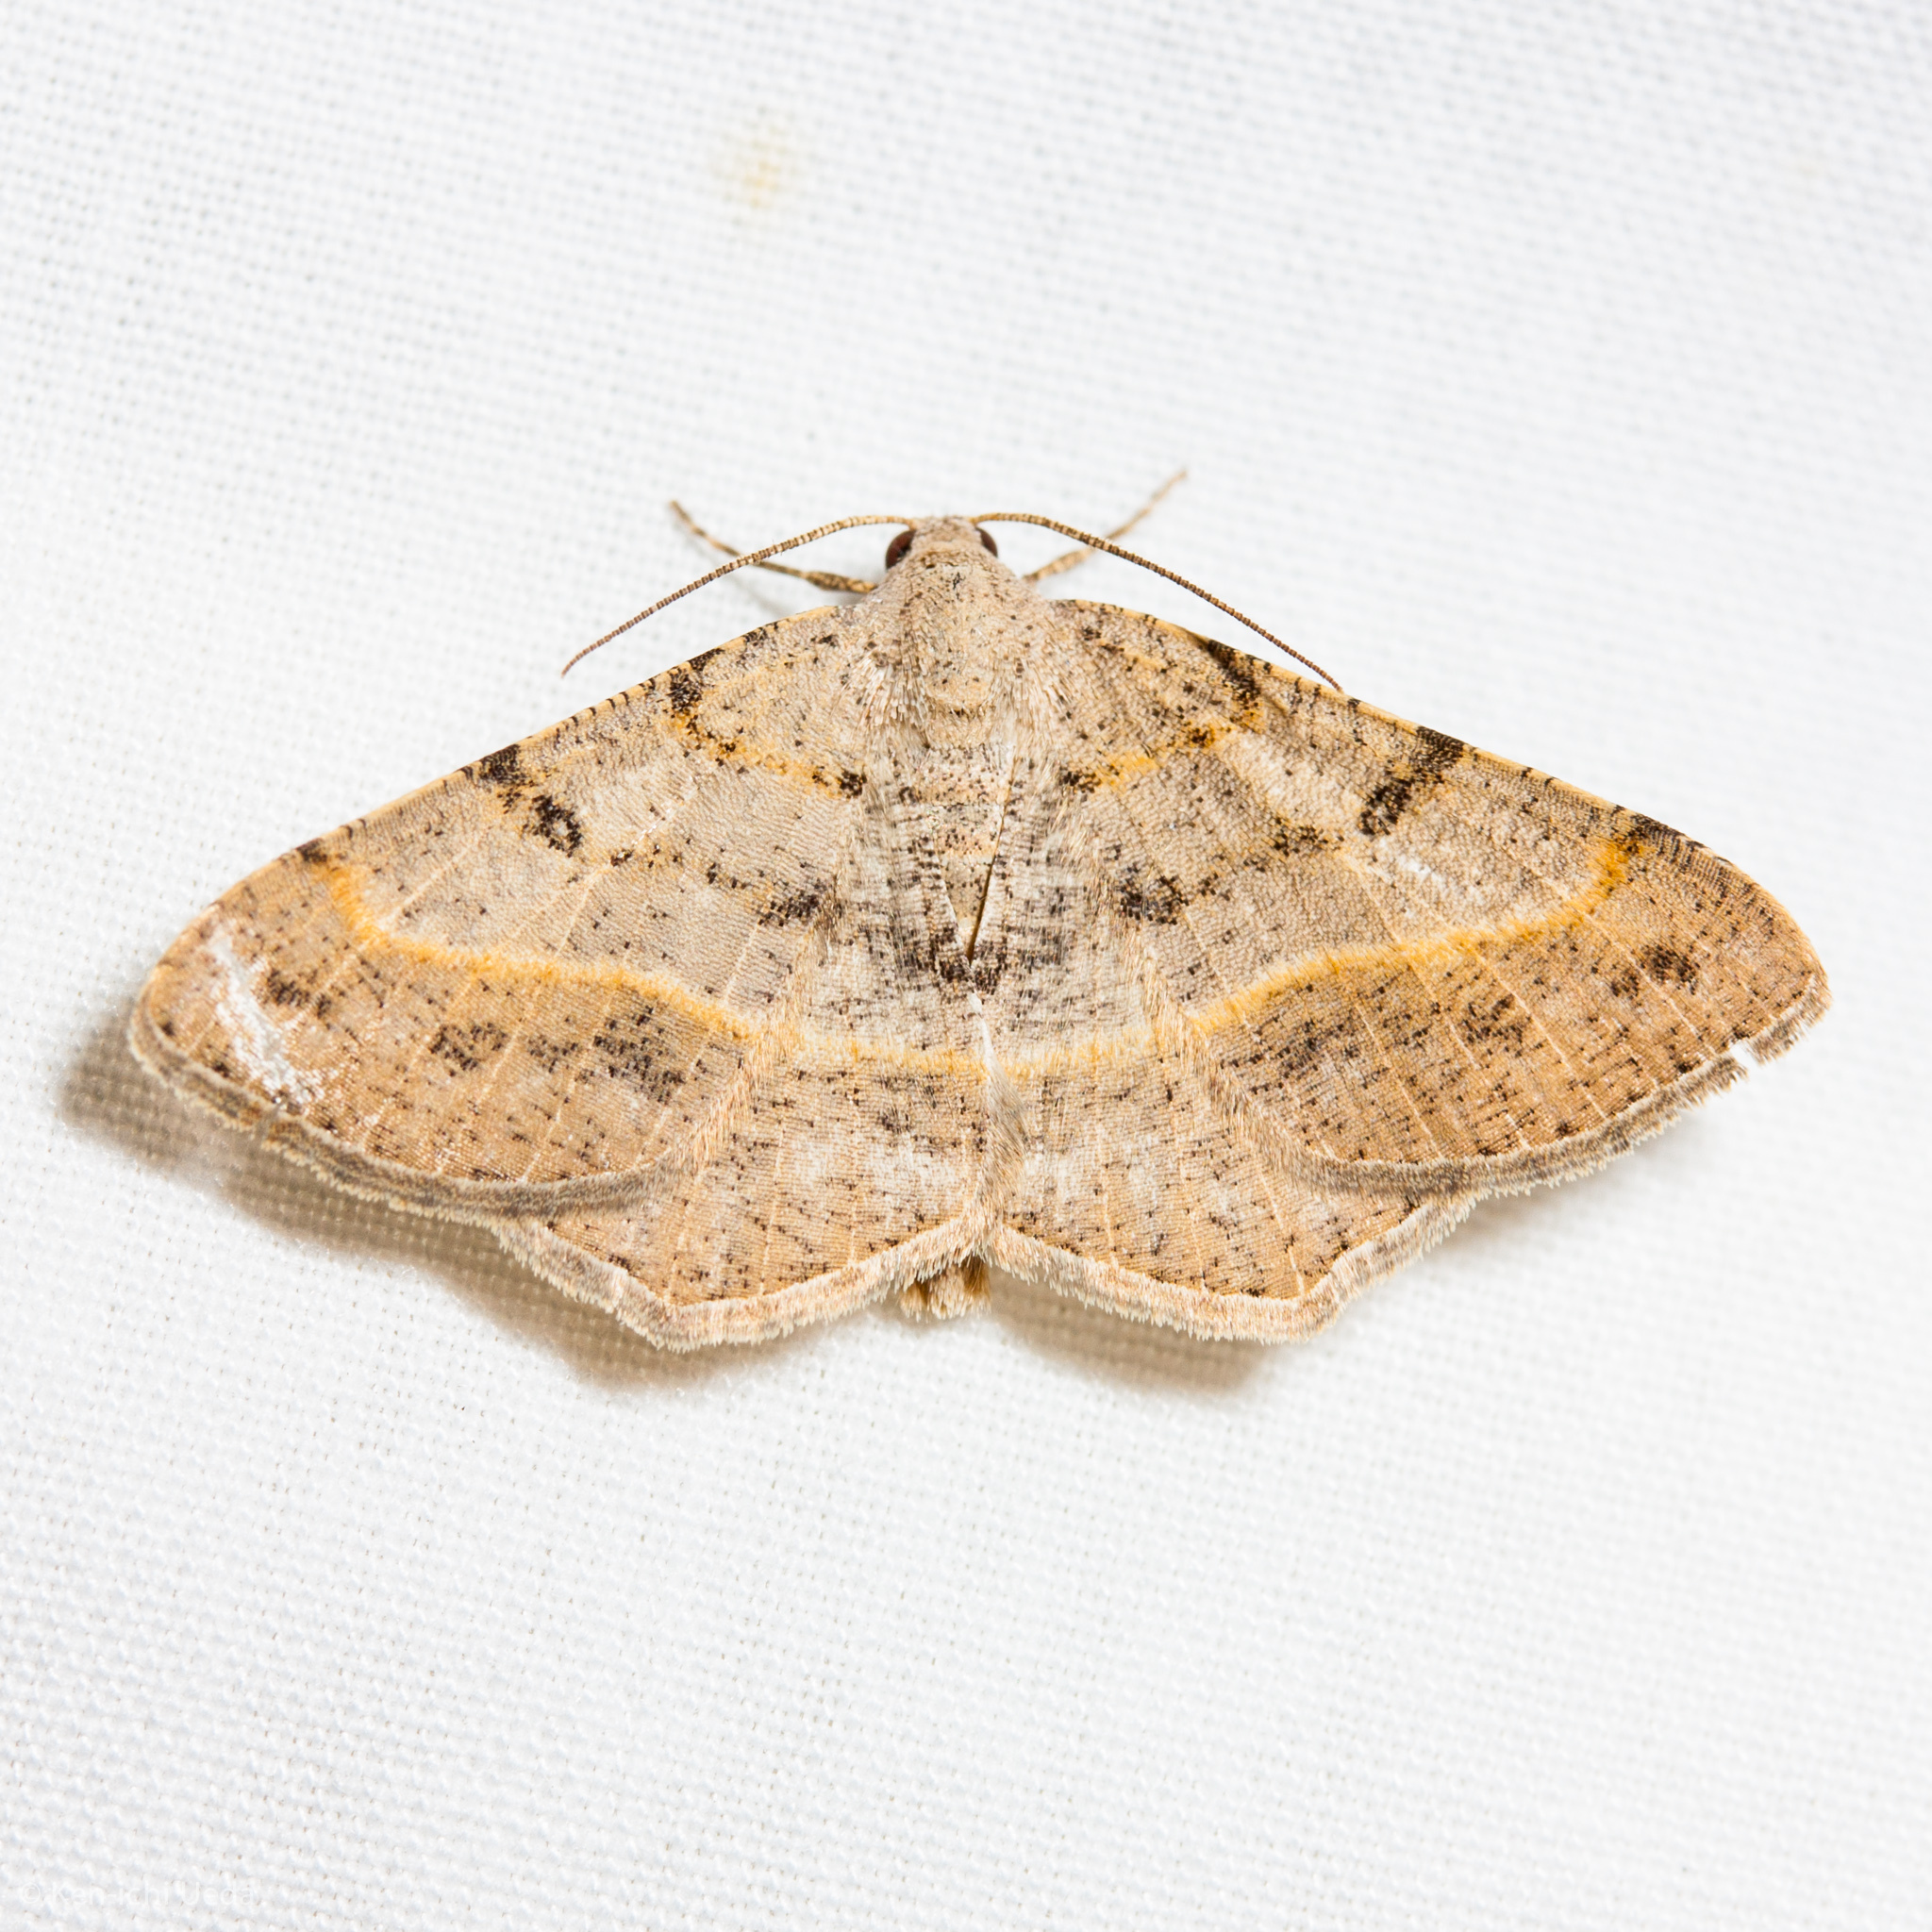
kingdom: Animalia
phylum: Arthropoda
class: Insecta
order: Lepidoptera
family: Geometridae
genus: Digrammia
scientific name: Digrammia irrorata
